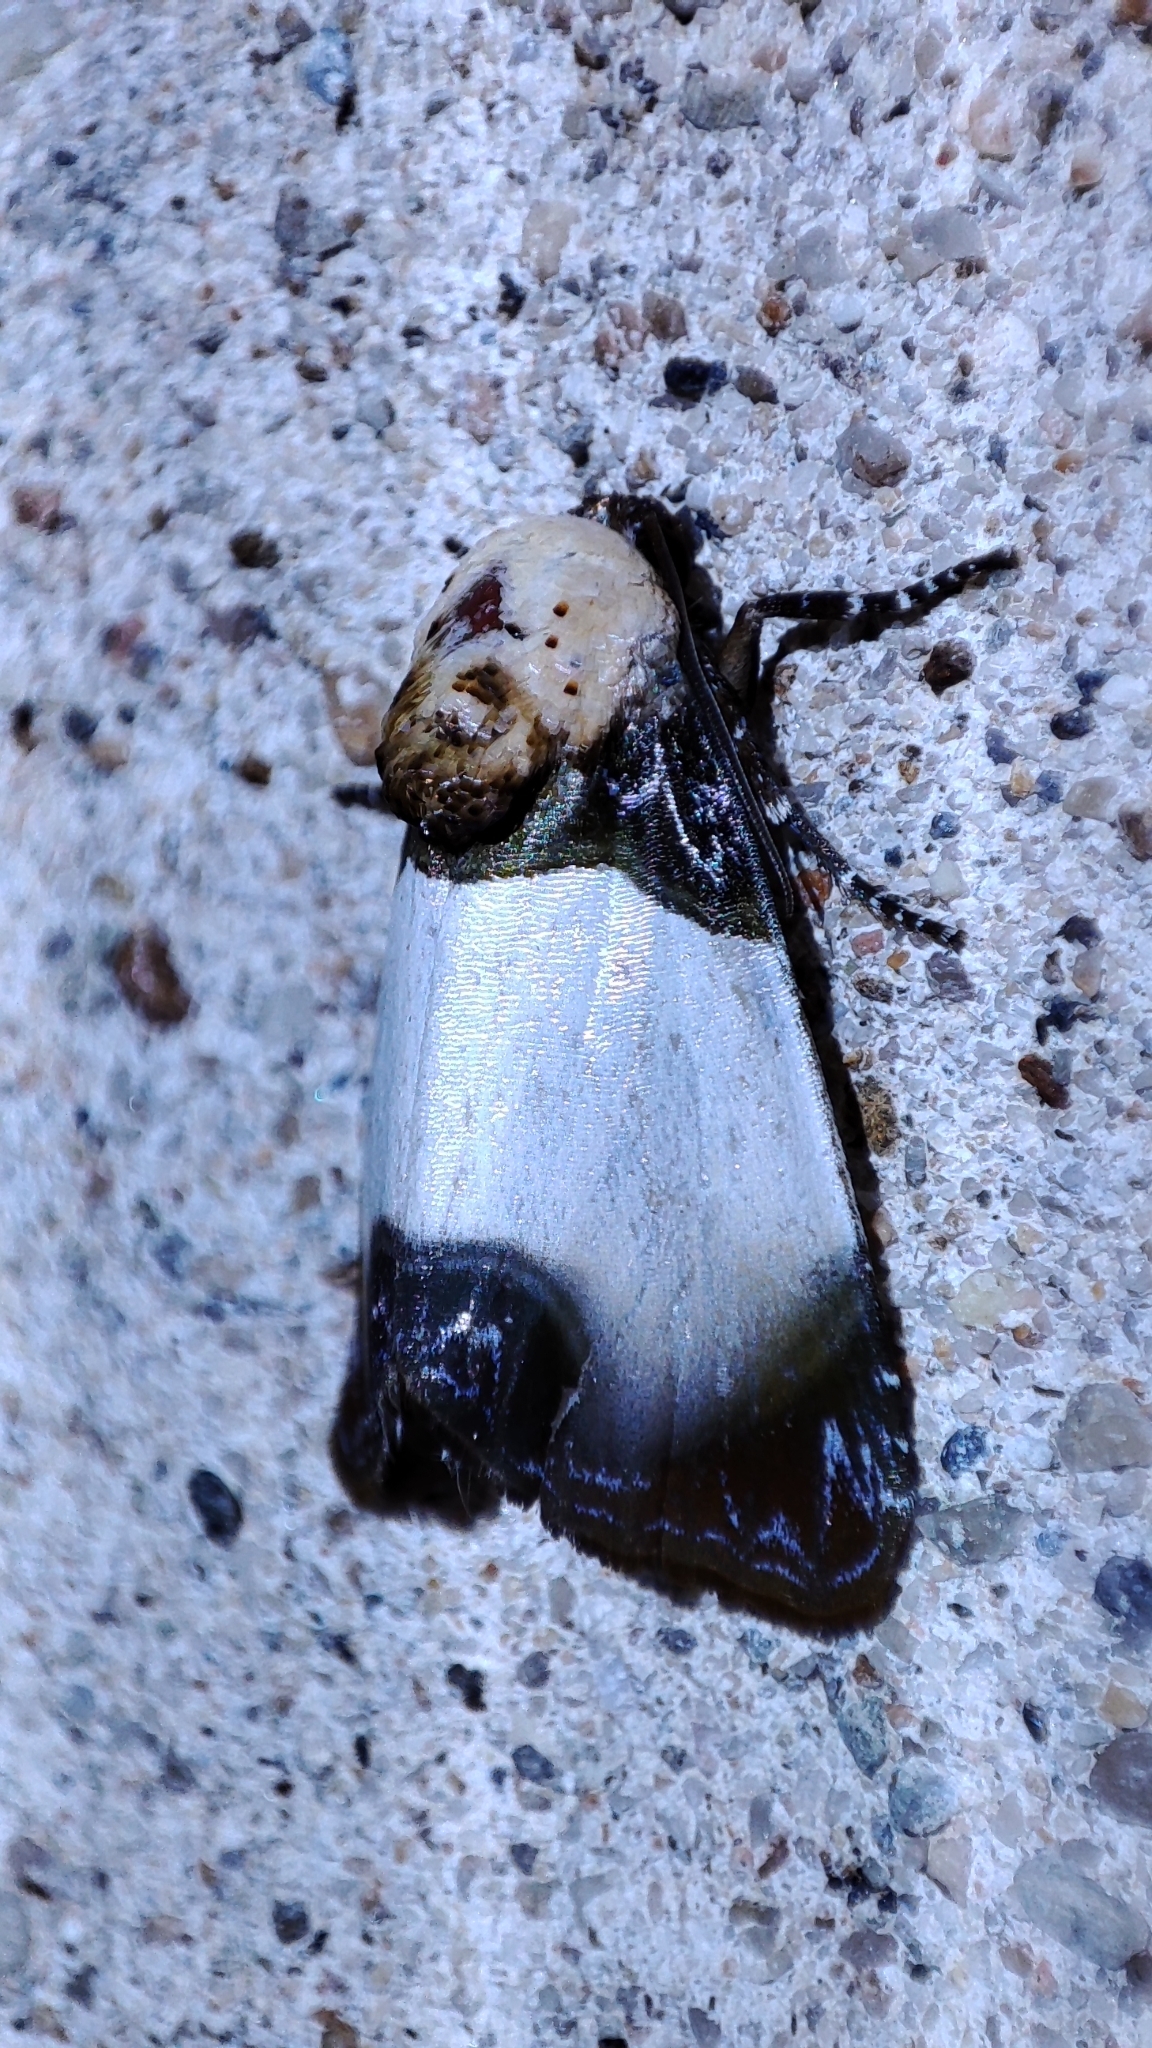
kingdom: Animalia
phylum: Arthropoda
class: Insecta
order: Lepidoptera
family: Noctuidae
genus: Sinocharis
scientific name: Sinocharis korbae
